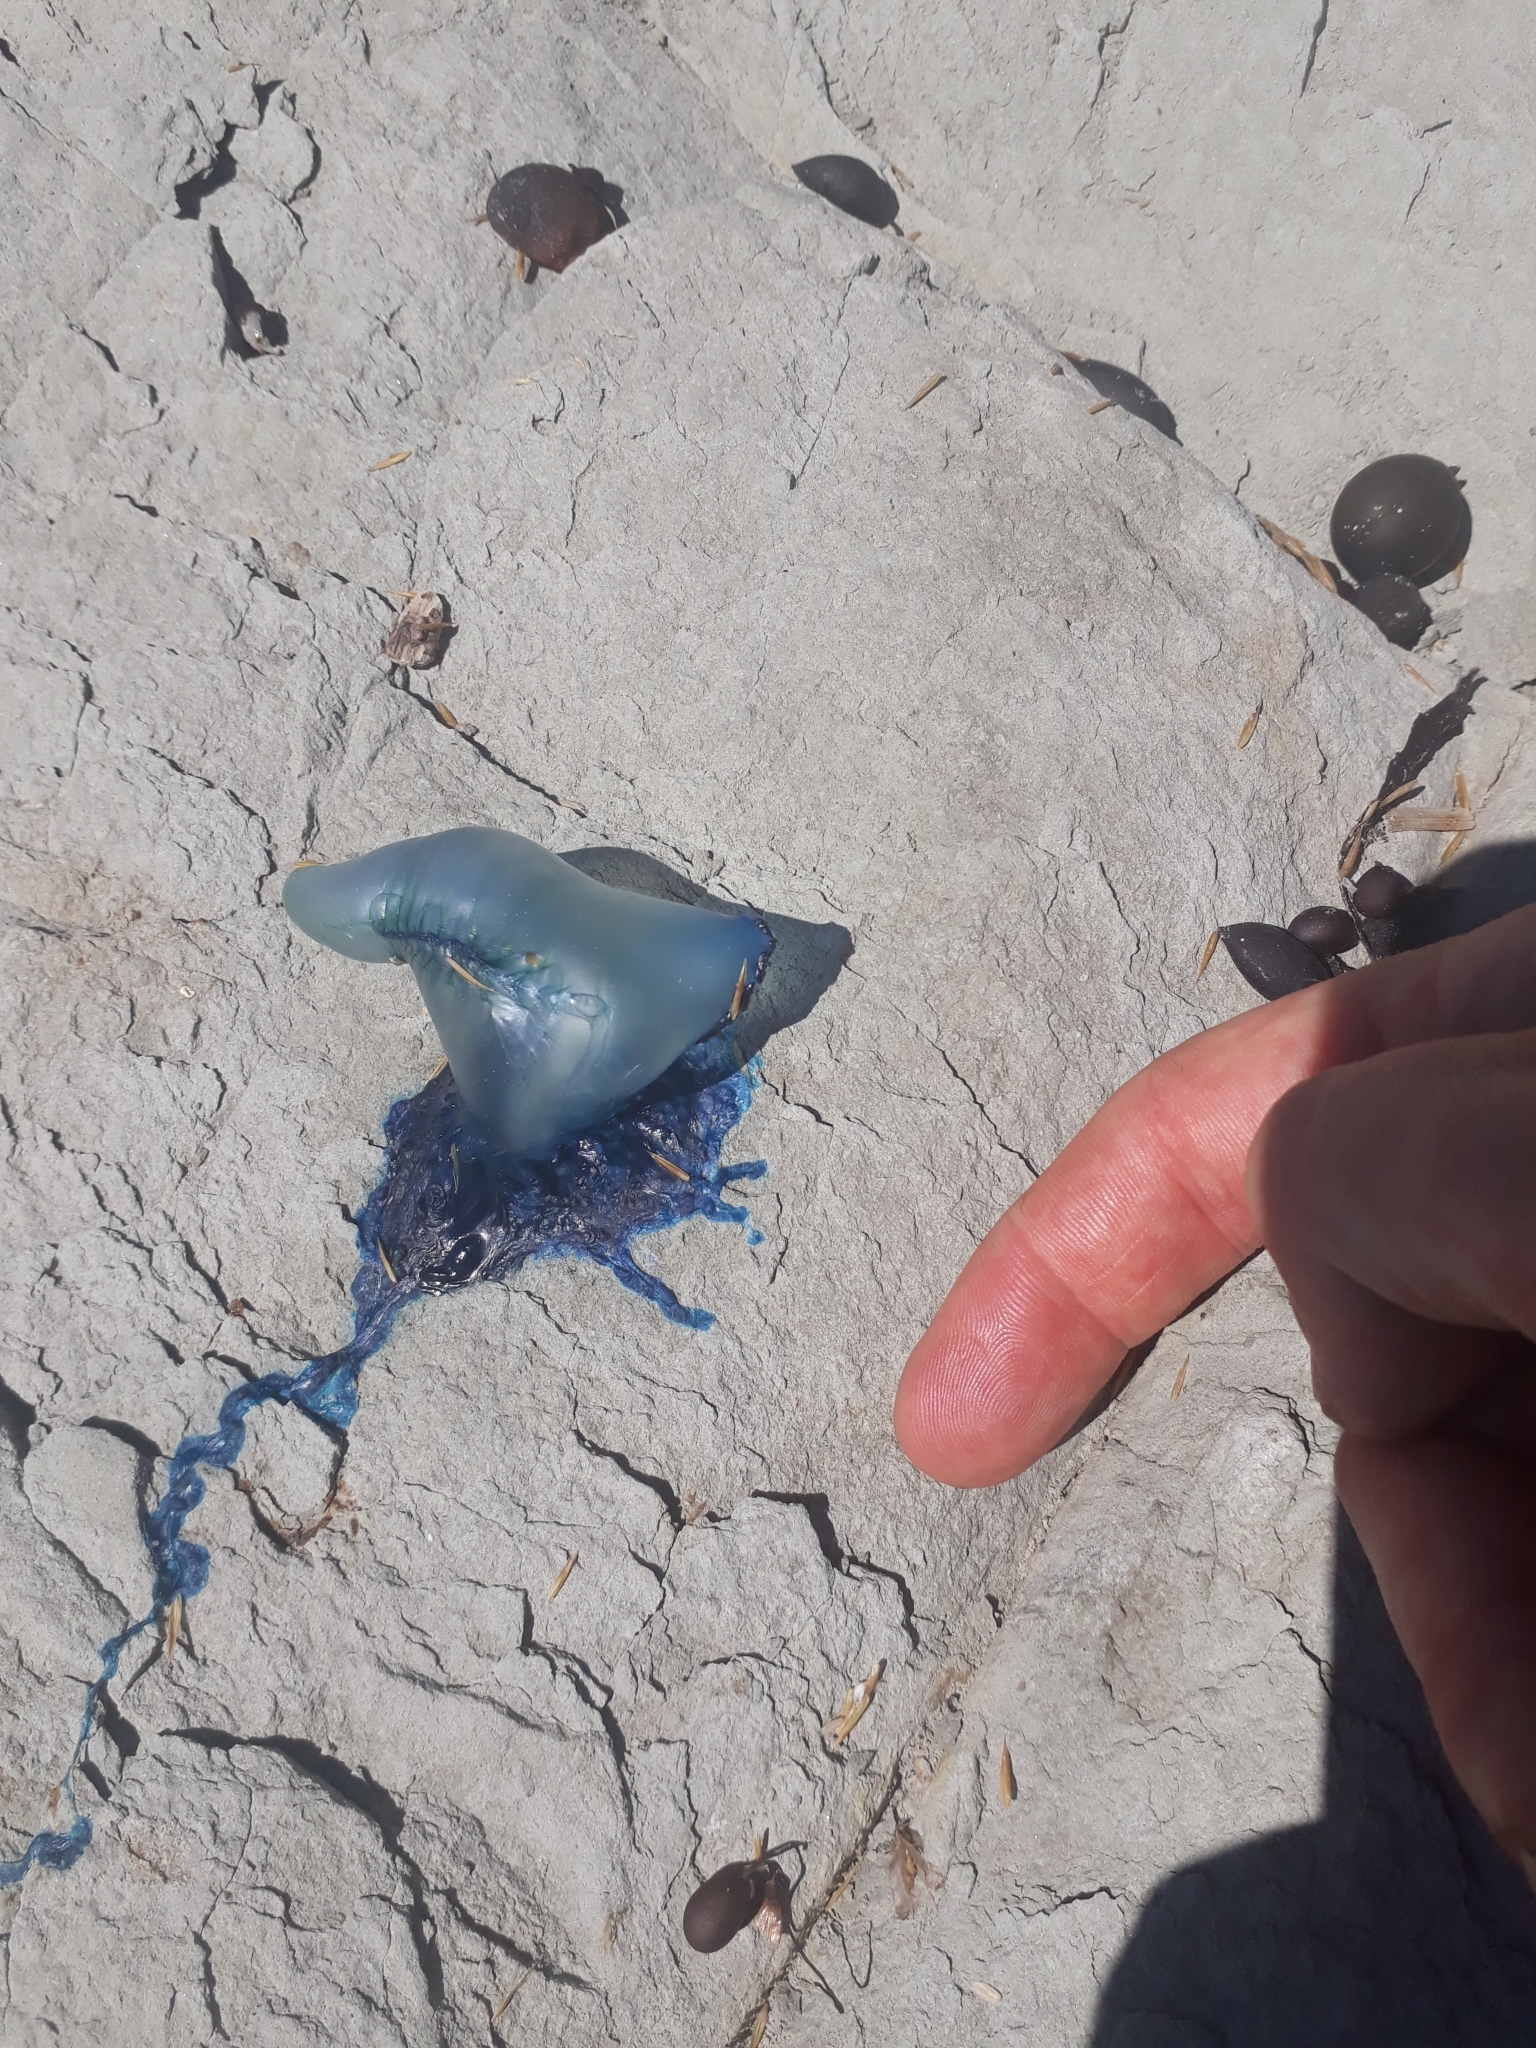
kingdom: Animalia
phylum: Cnidaria
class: Hydrozoa
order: Siphonophorae
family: Physaliidae
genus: Physalia
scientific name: Physalia physalis
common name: Portuguese man-of-war
